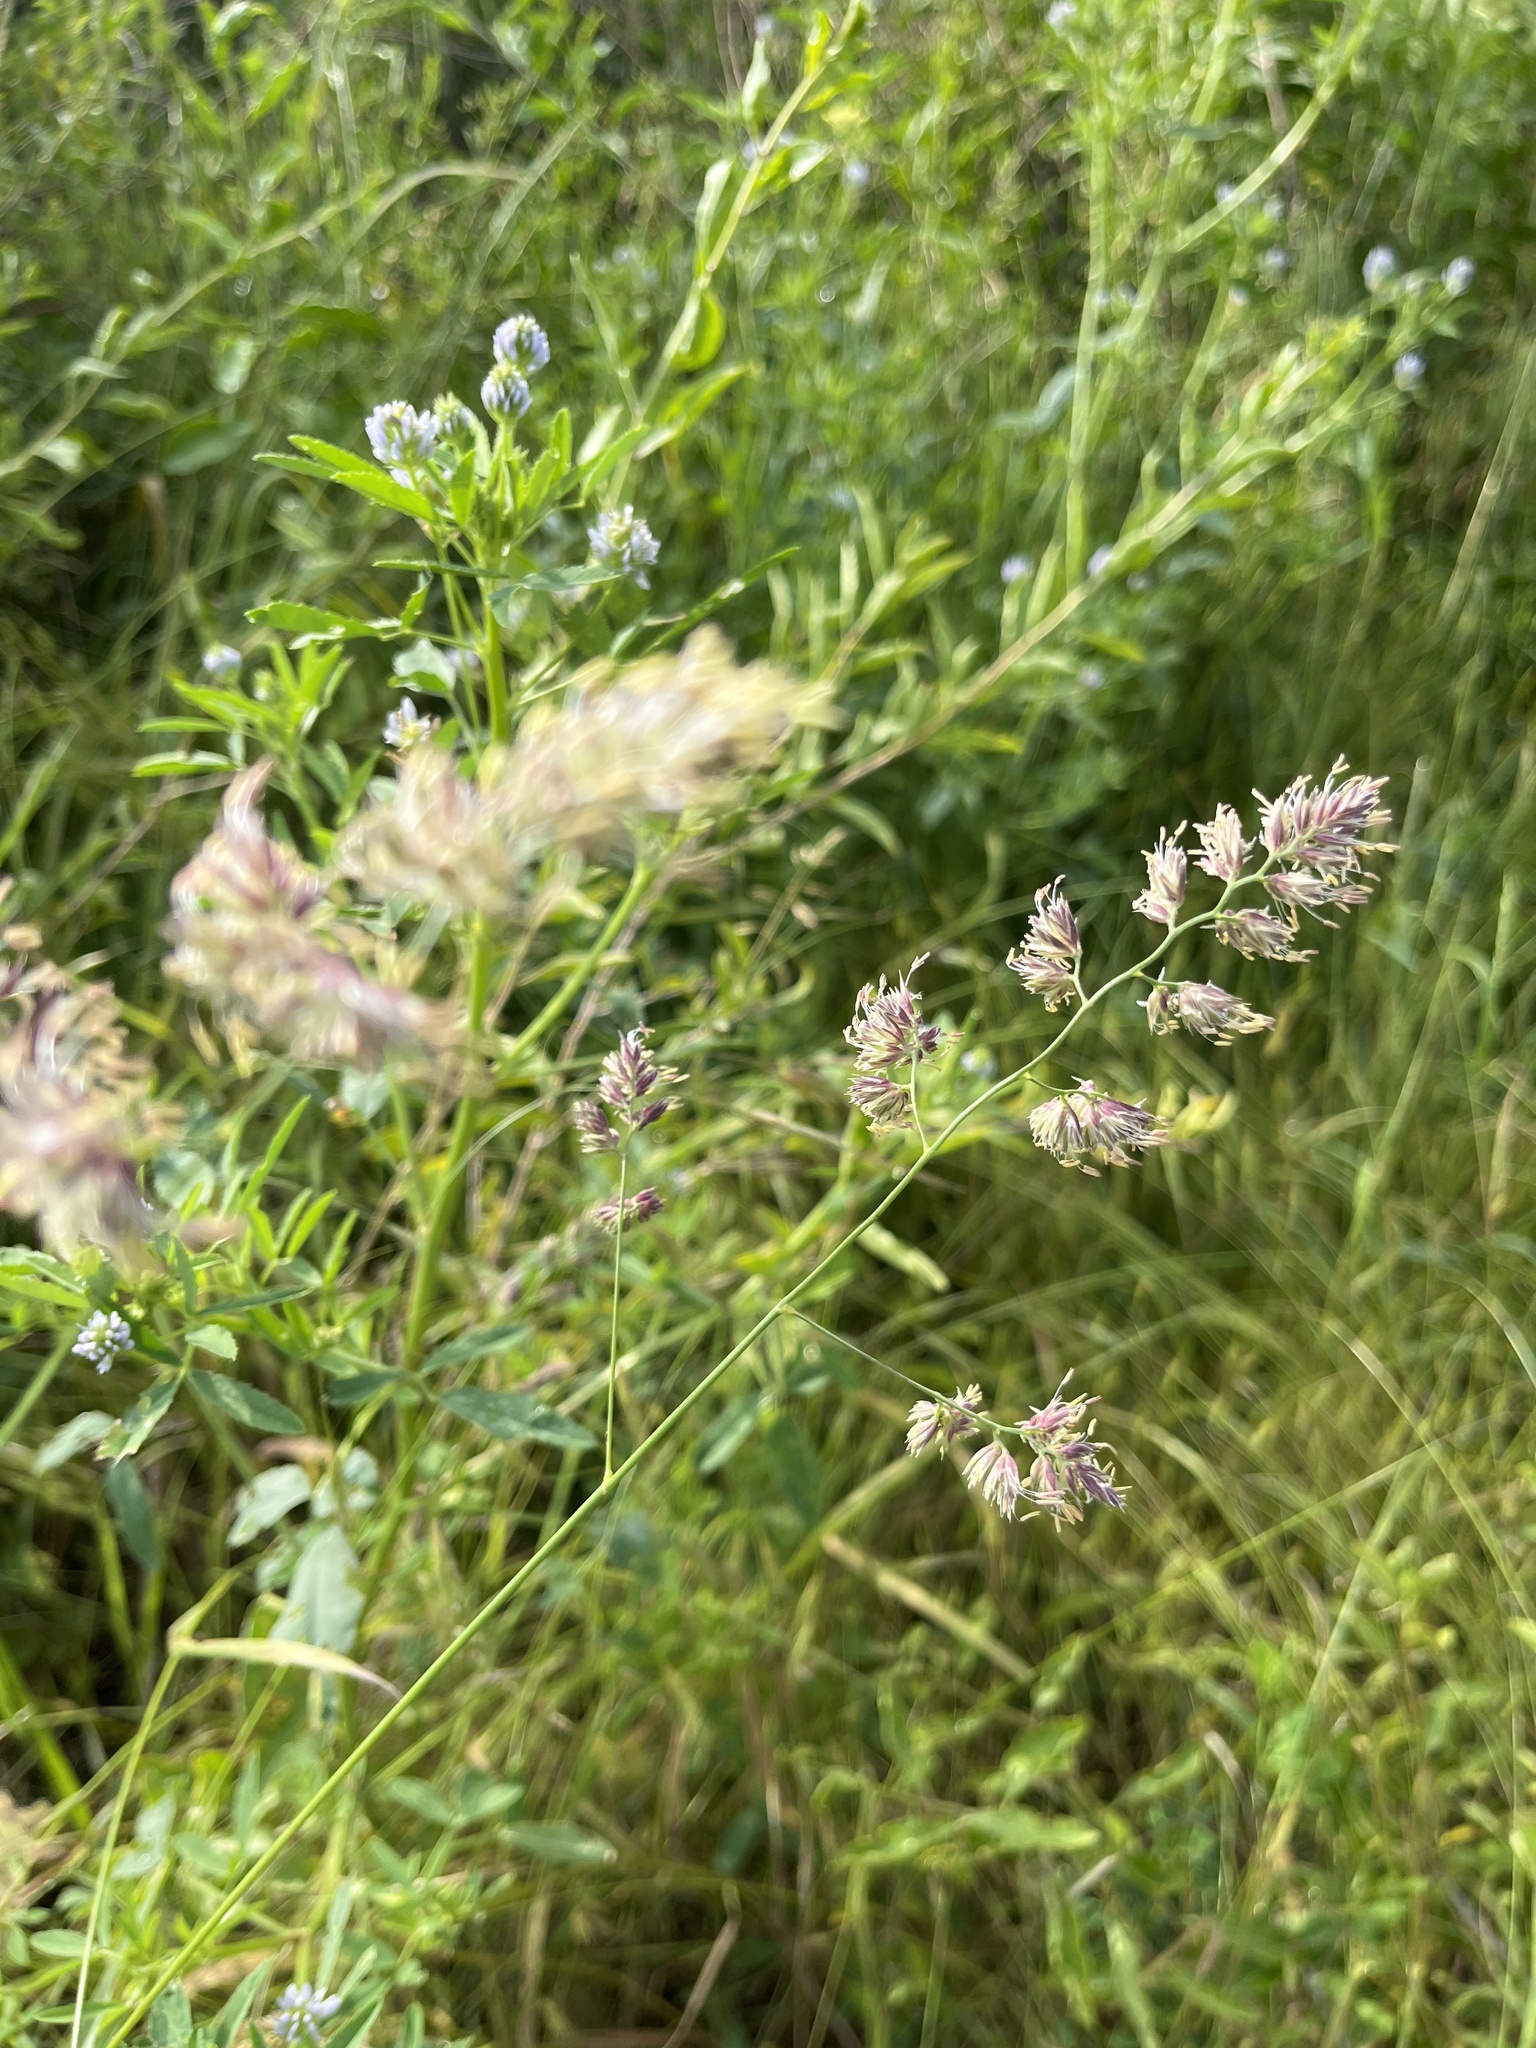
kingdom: Plantae
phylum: Tracheophyta
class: Liliopsida
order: Poales
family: Poaceae
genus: Dactylis
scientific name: Dactylis glomerata
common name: Orchardgrass
